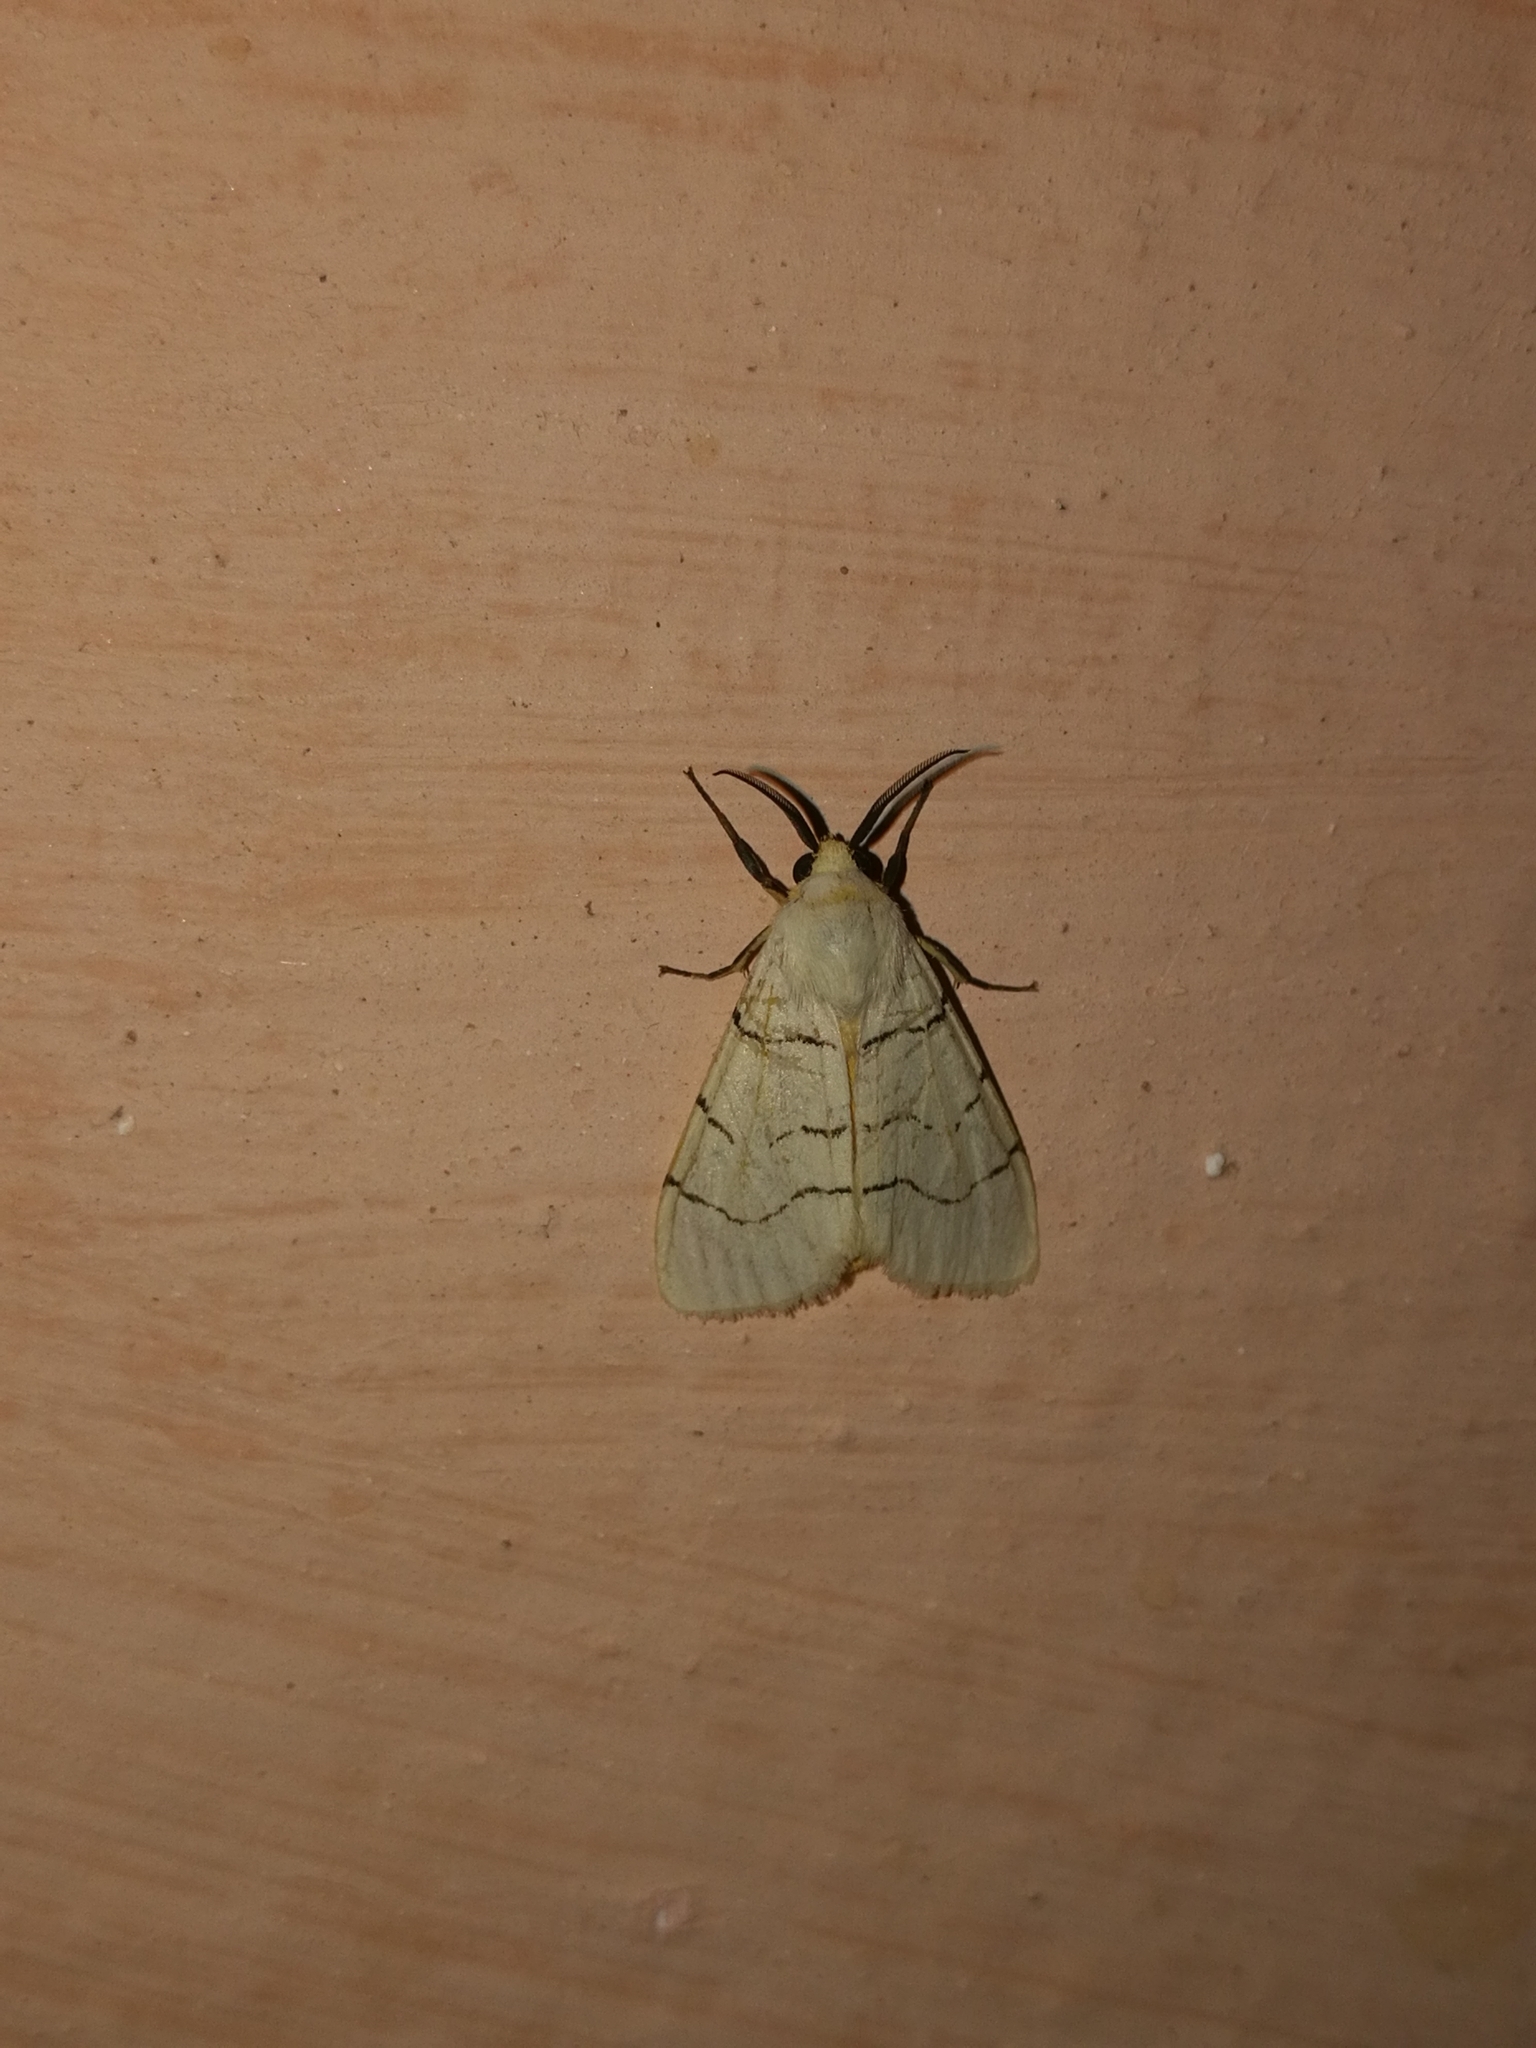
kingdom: Animalia
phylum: Arthropoda
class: Insecta
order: Lepidoptera
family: Erebidae
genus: Spilosoma
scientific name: Spilosoma curvilinea
